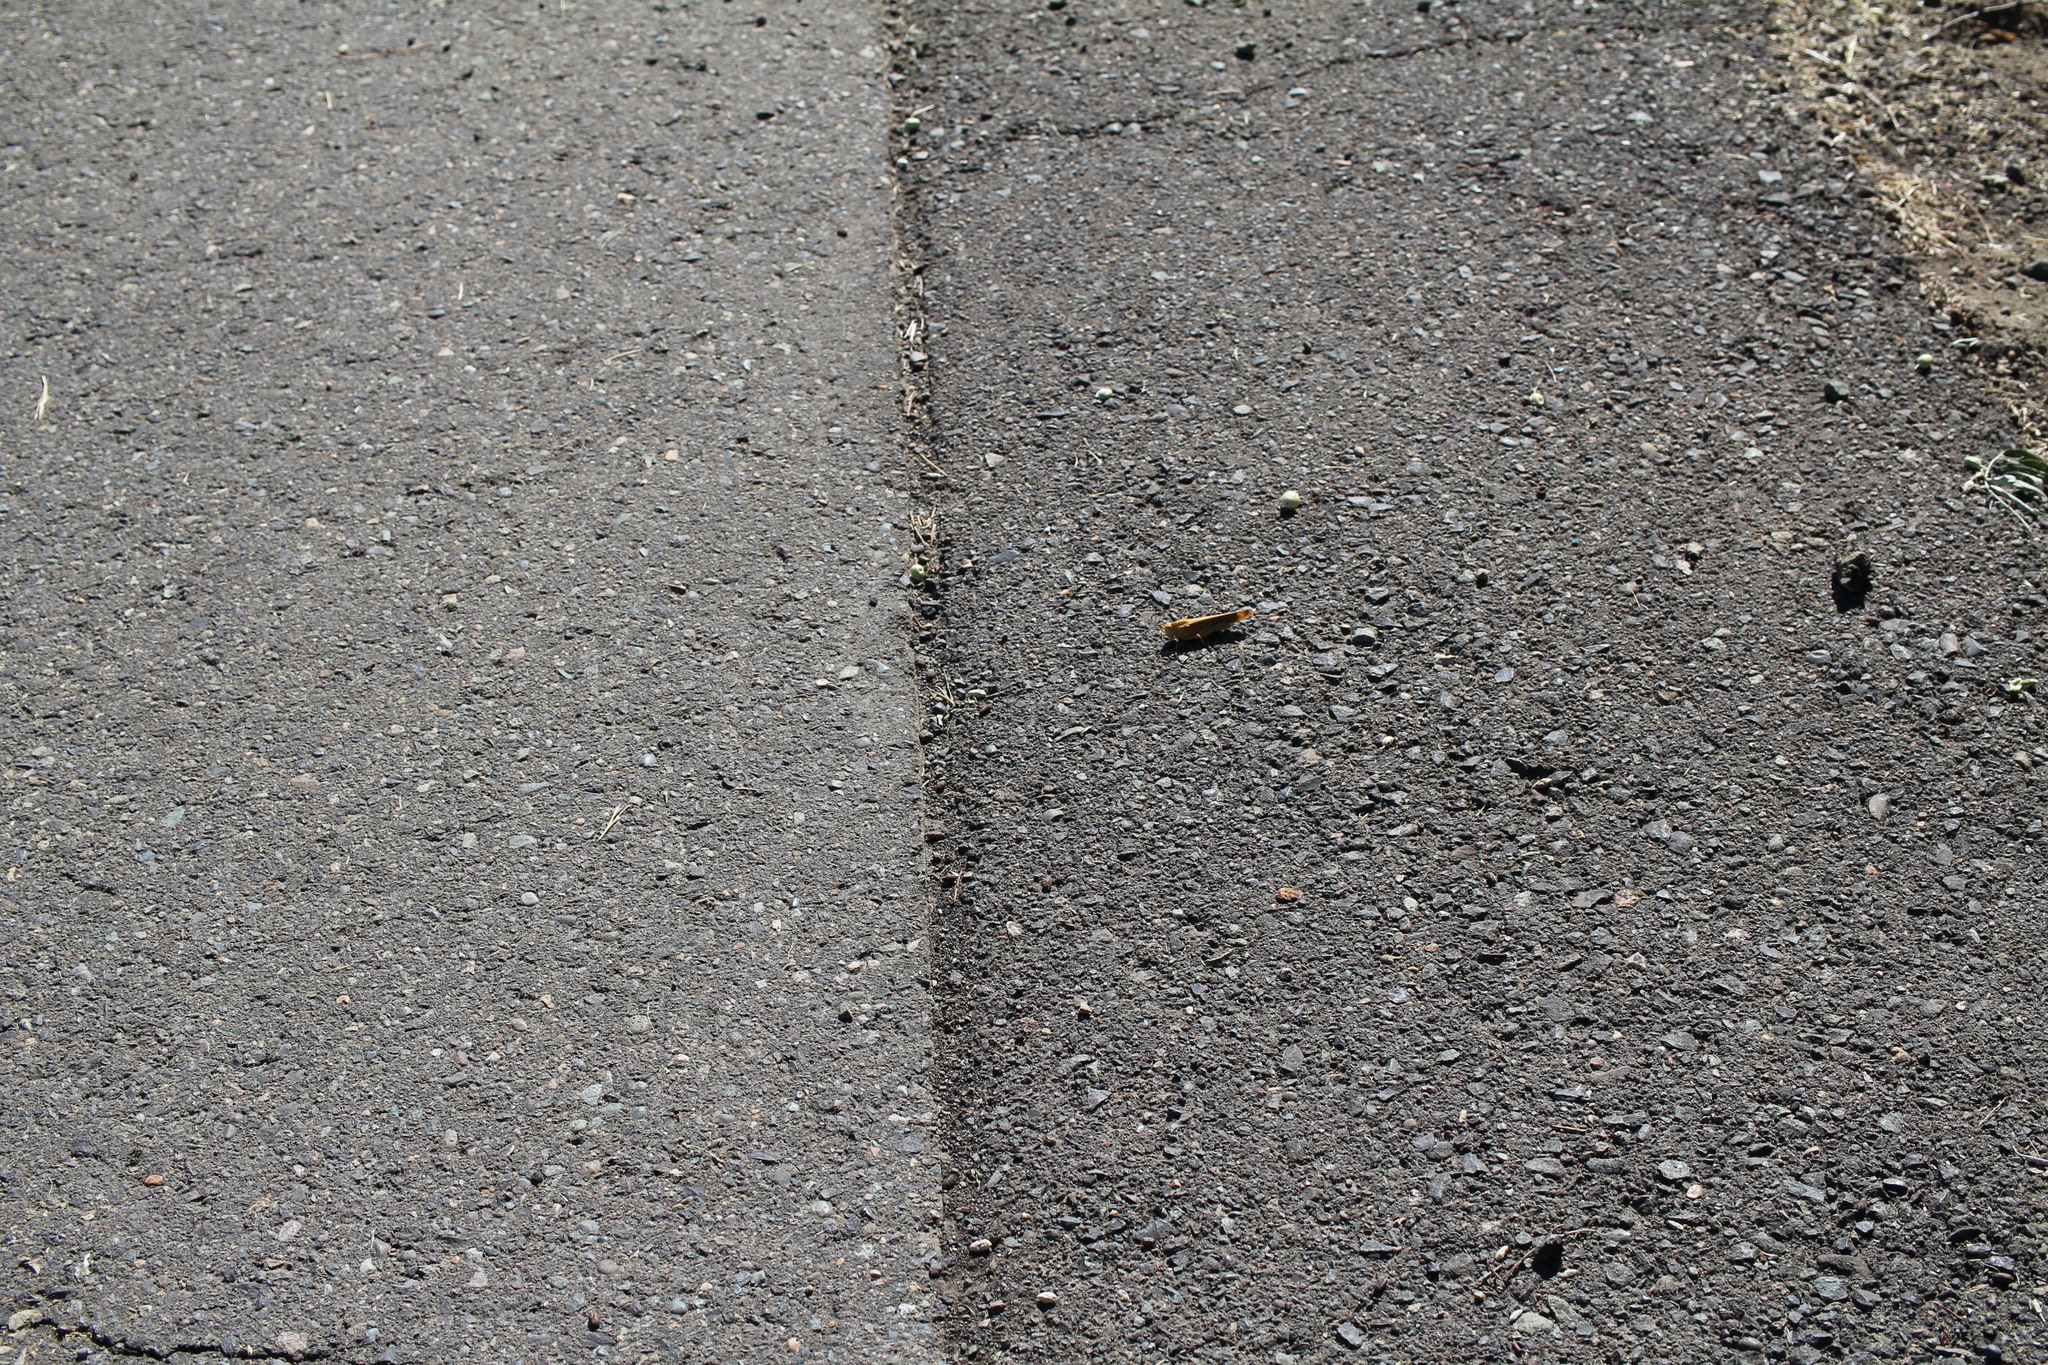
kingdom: Animalia
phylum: Arthropoda
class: Insecta
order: Orthoptera
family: Acrididae
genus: Dissosteira
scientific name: Dissosteira carolina
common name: Carolina grasshopper
